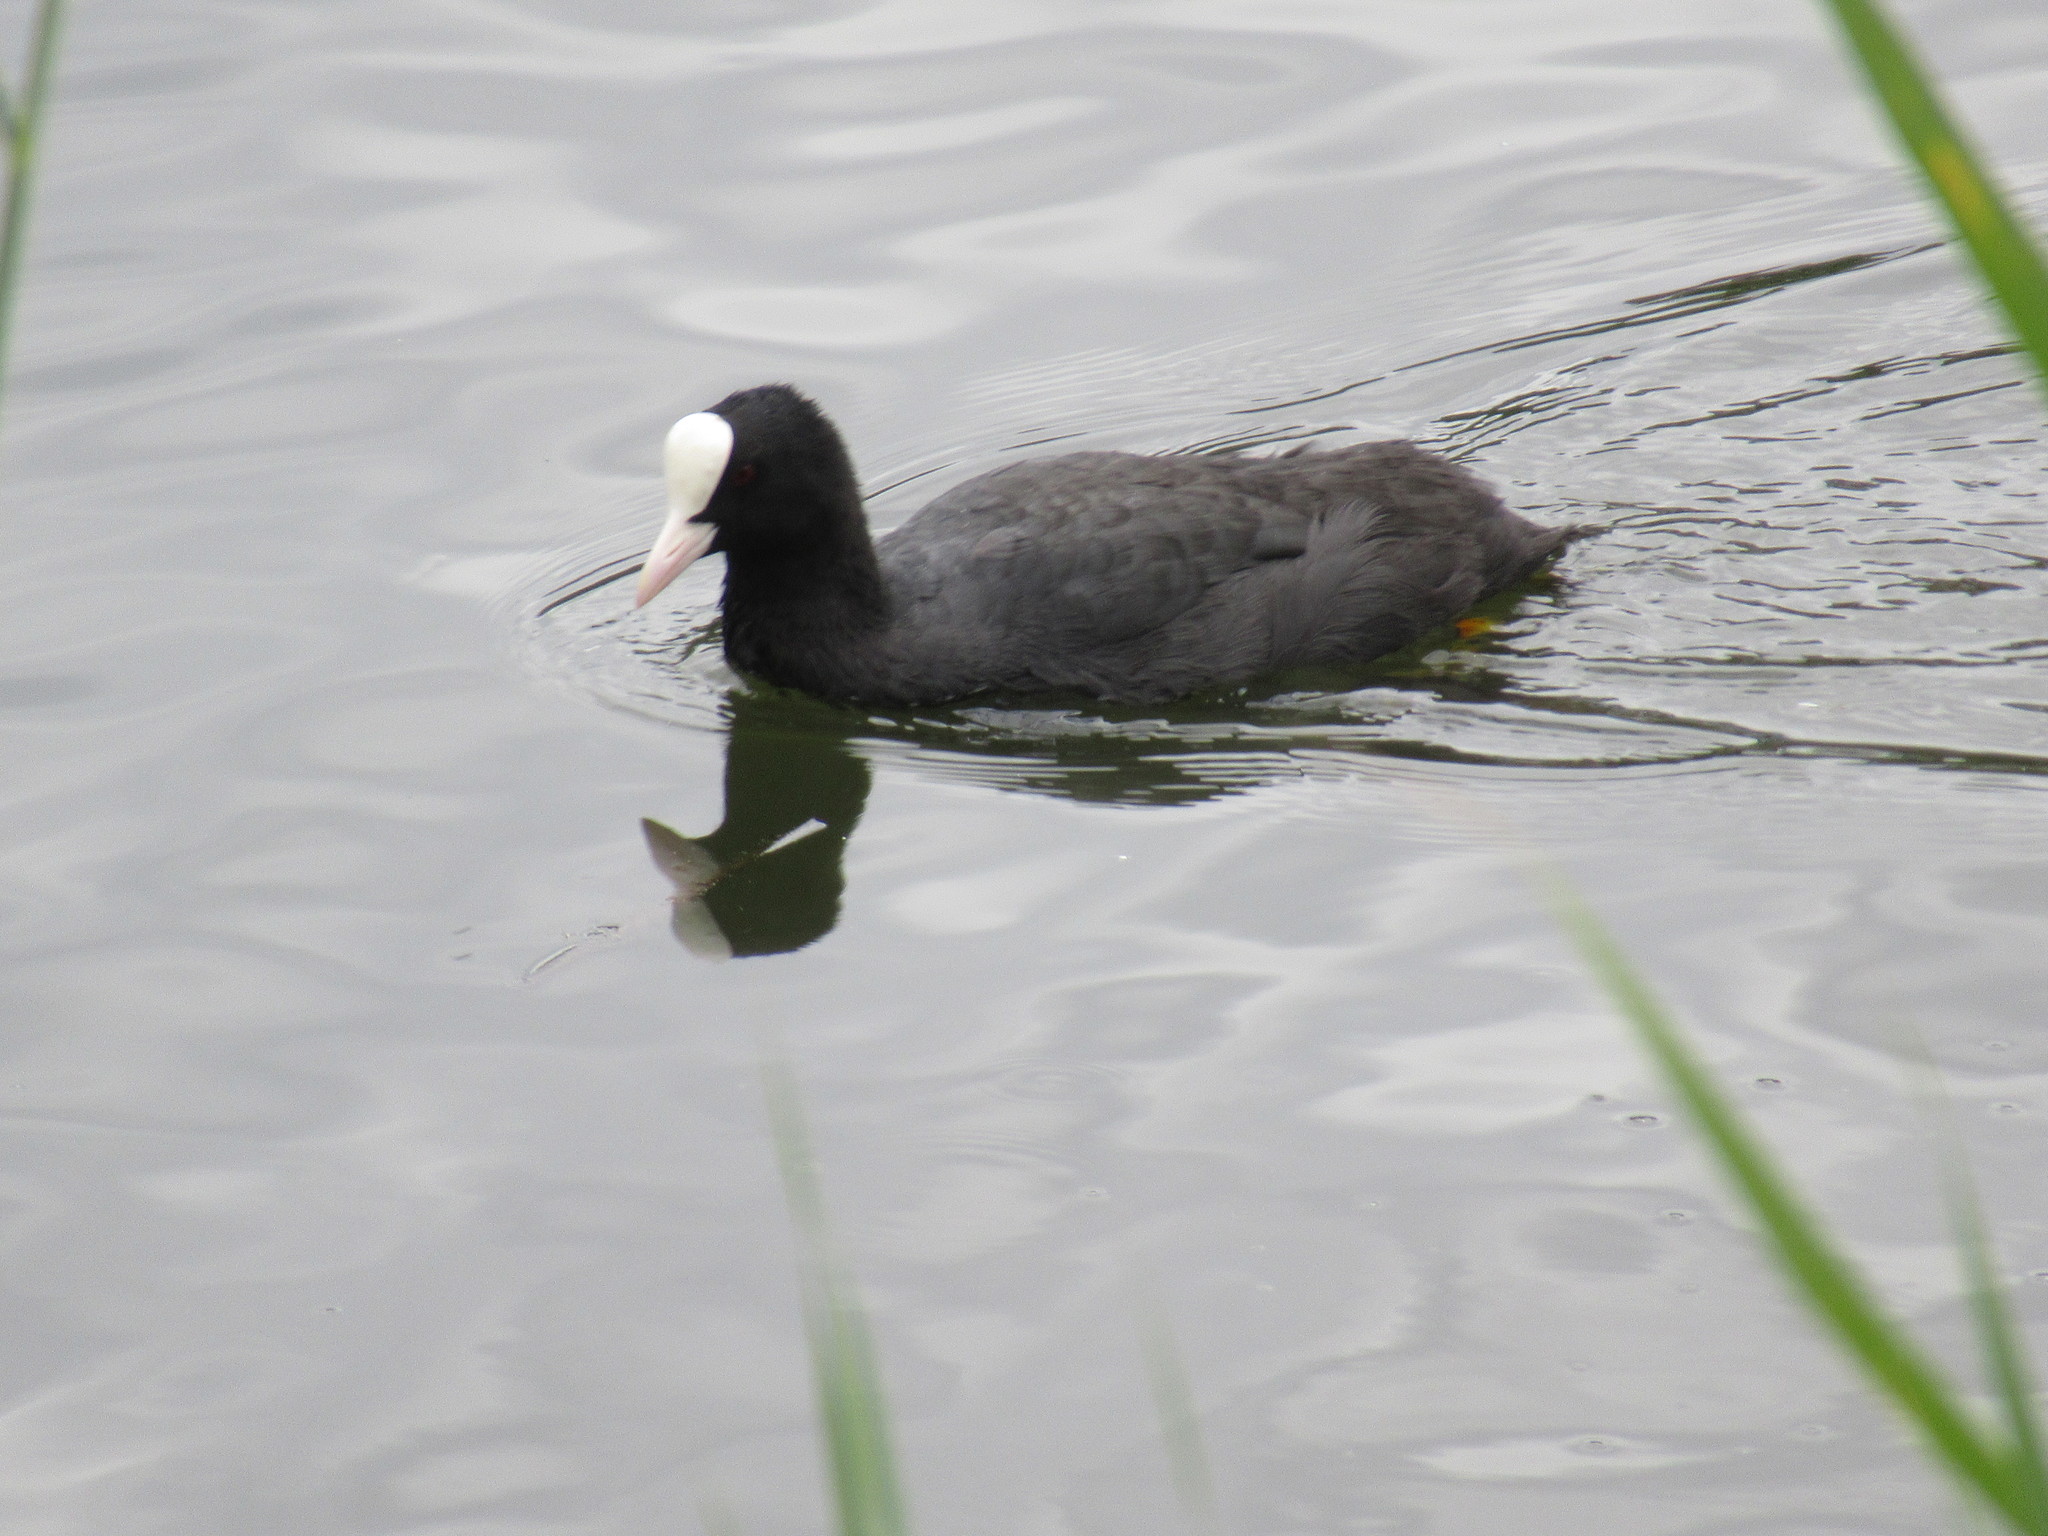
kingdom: Animalia
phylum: Chordata
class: Aves
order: Gruiformes
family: Rallidae
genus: Fulica
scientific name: Fulica atra
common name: Eurasian coot
